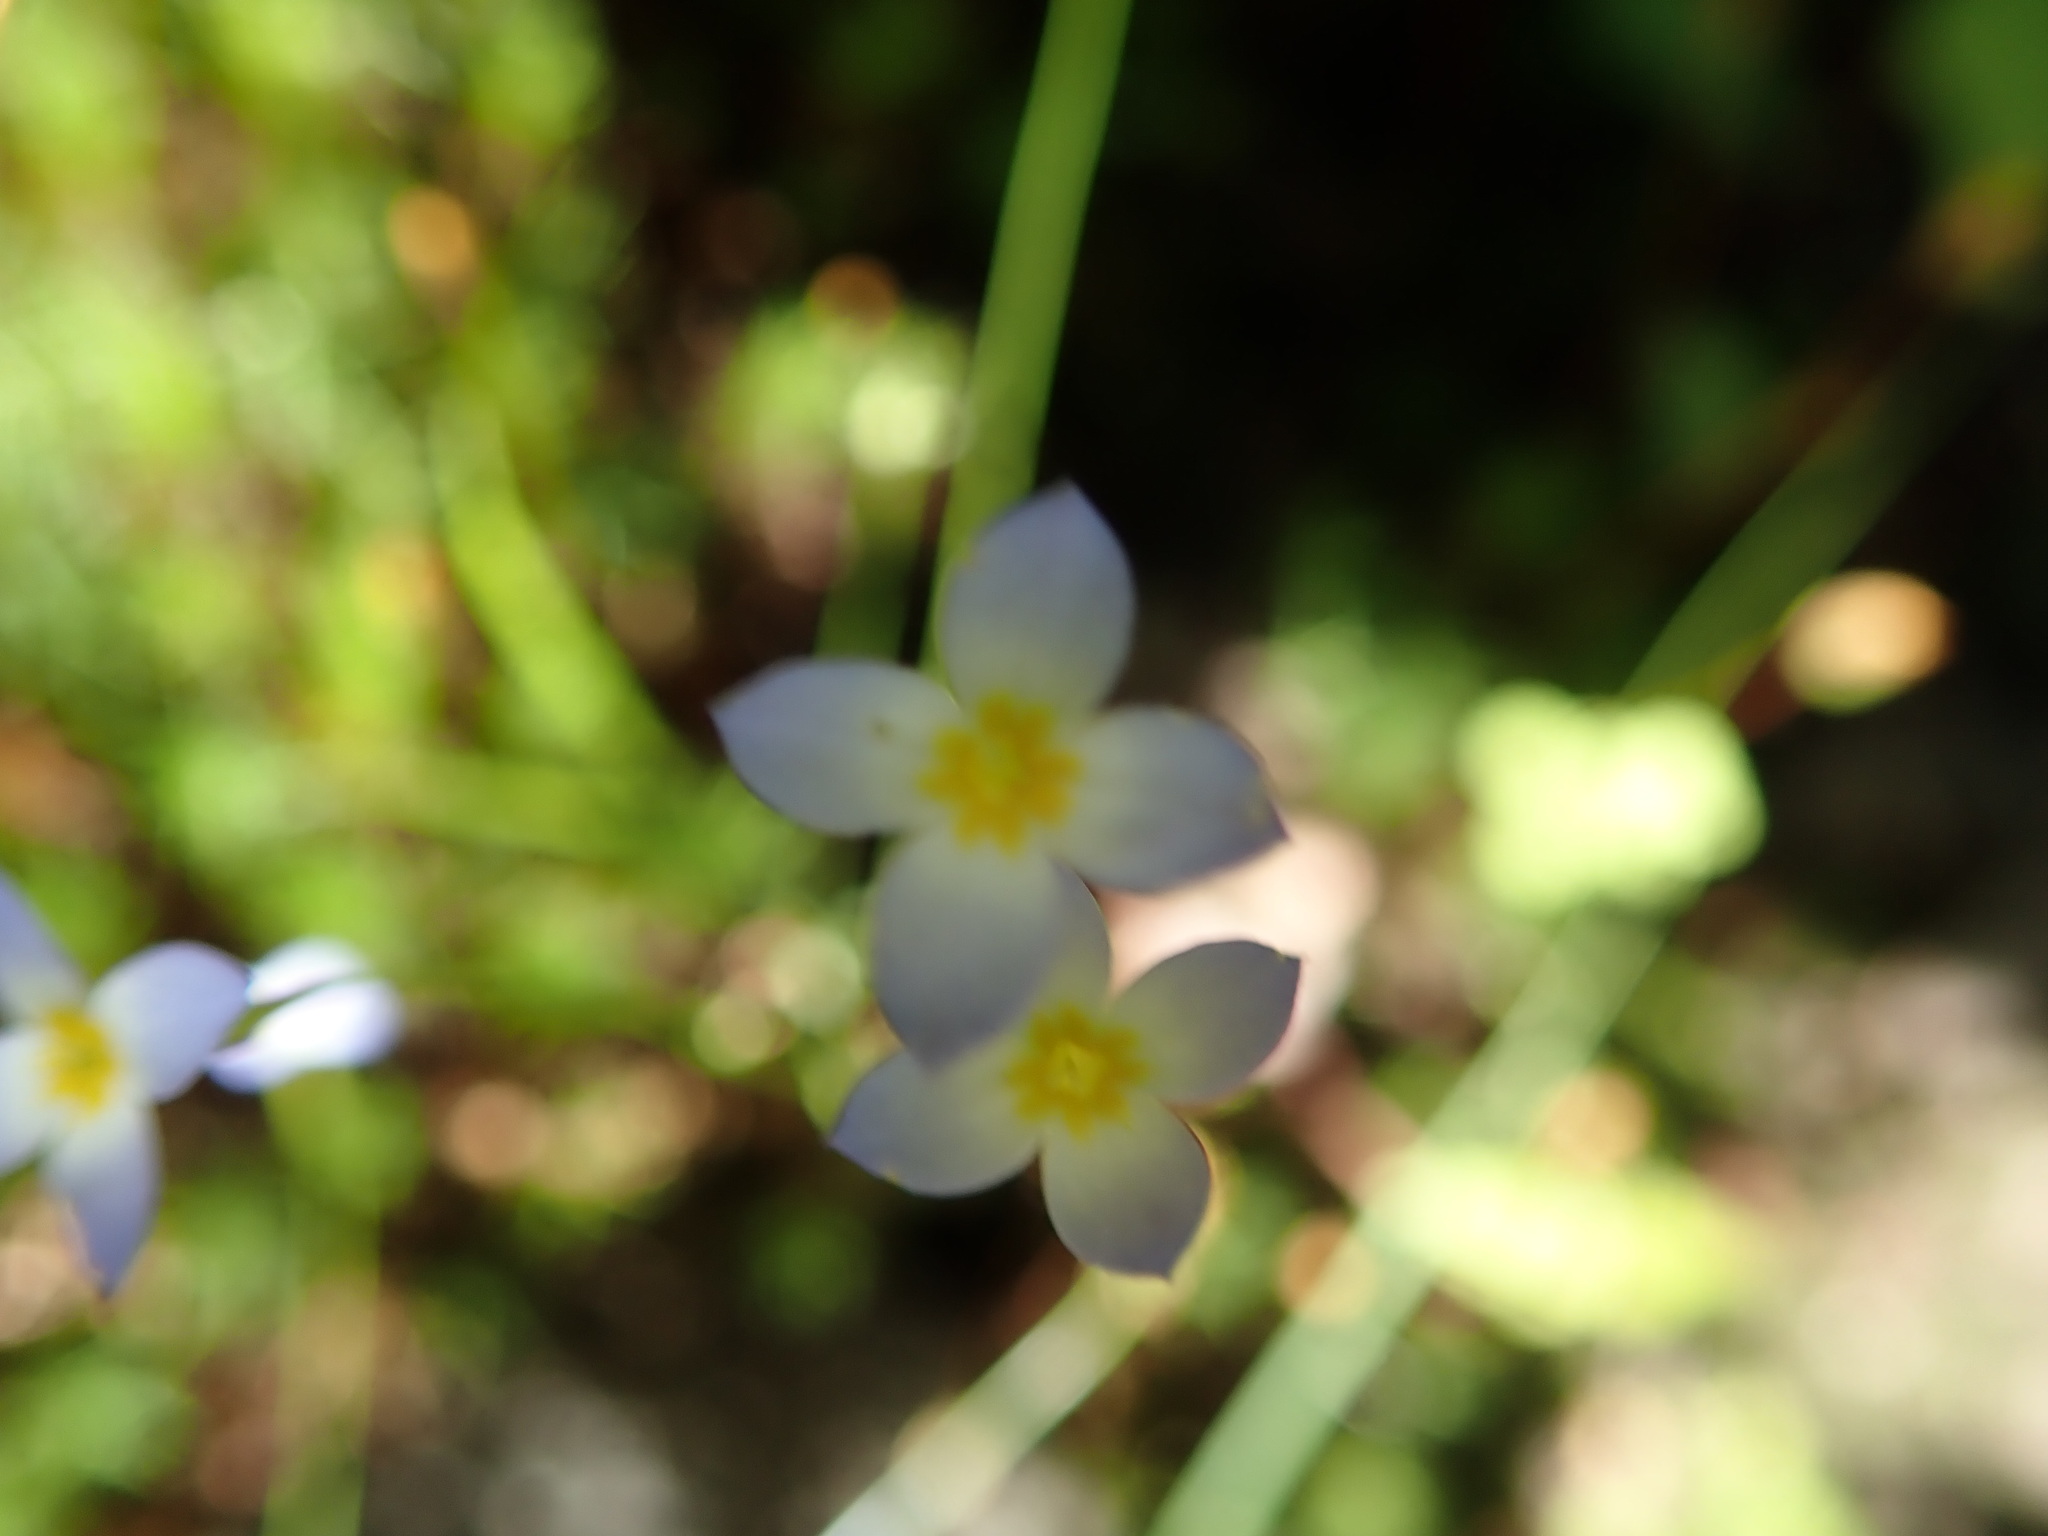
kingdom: Plantae
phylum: Tracheophyta
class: Magnoliopsida
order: Gentianales
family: Rubiaceae
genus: Houstonia
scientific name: Houstonia caerulea
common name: Bluets
